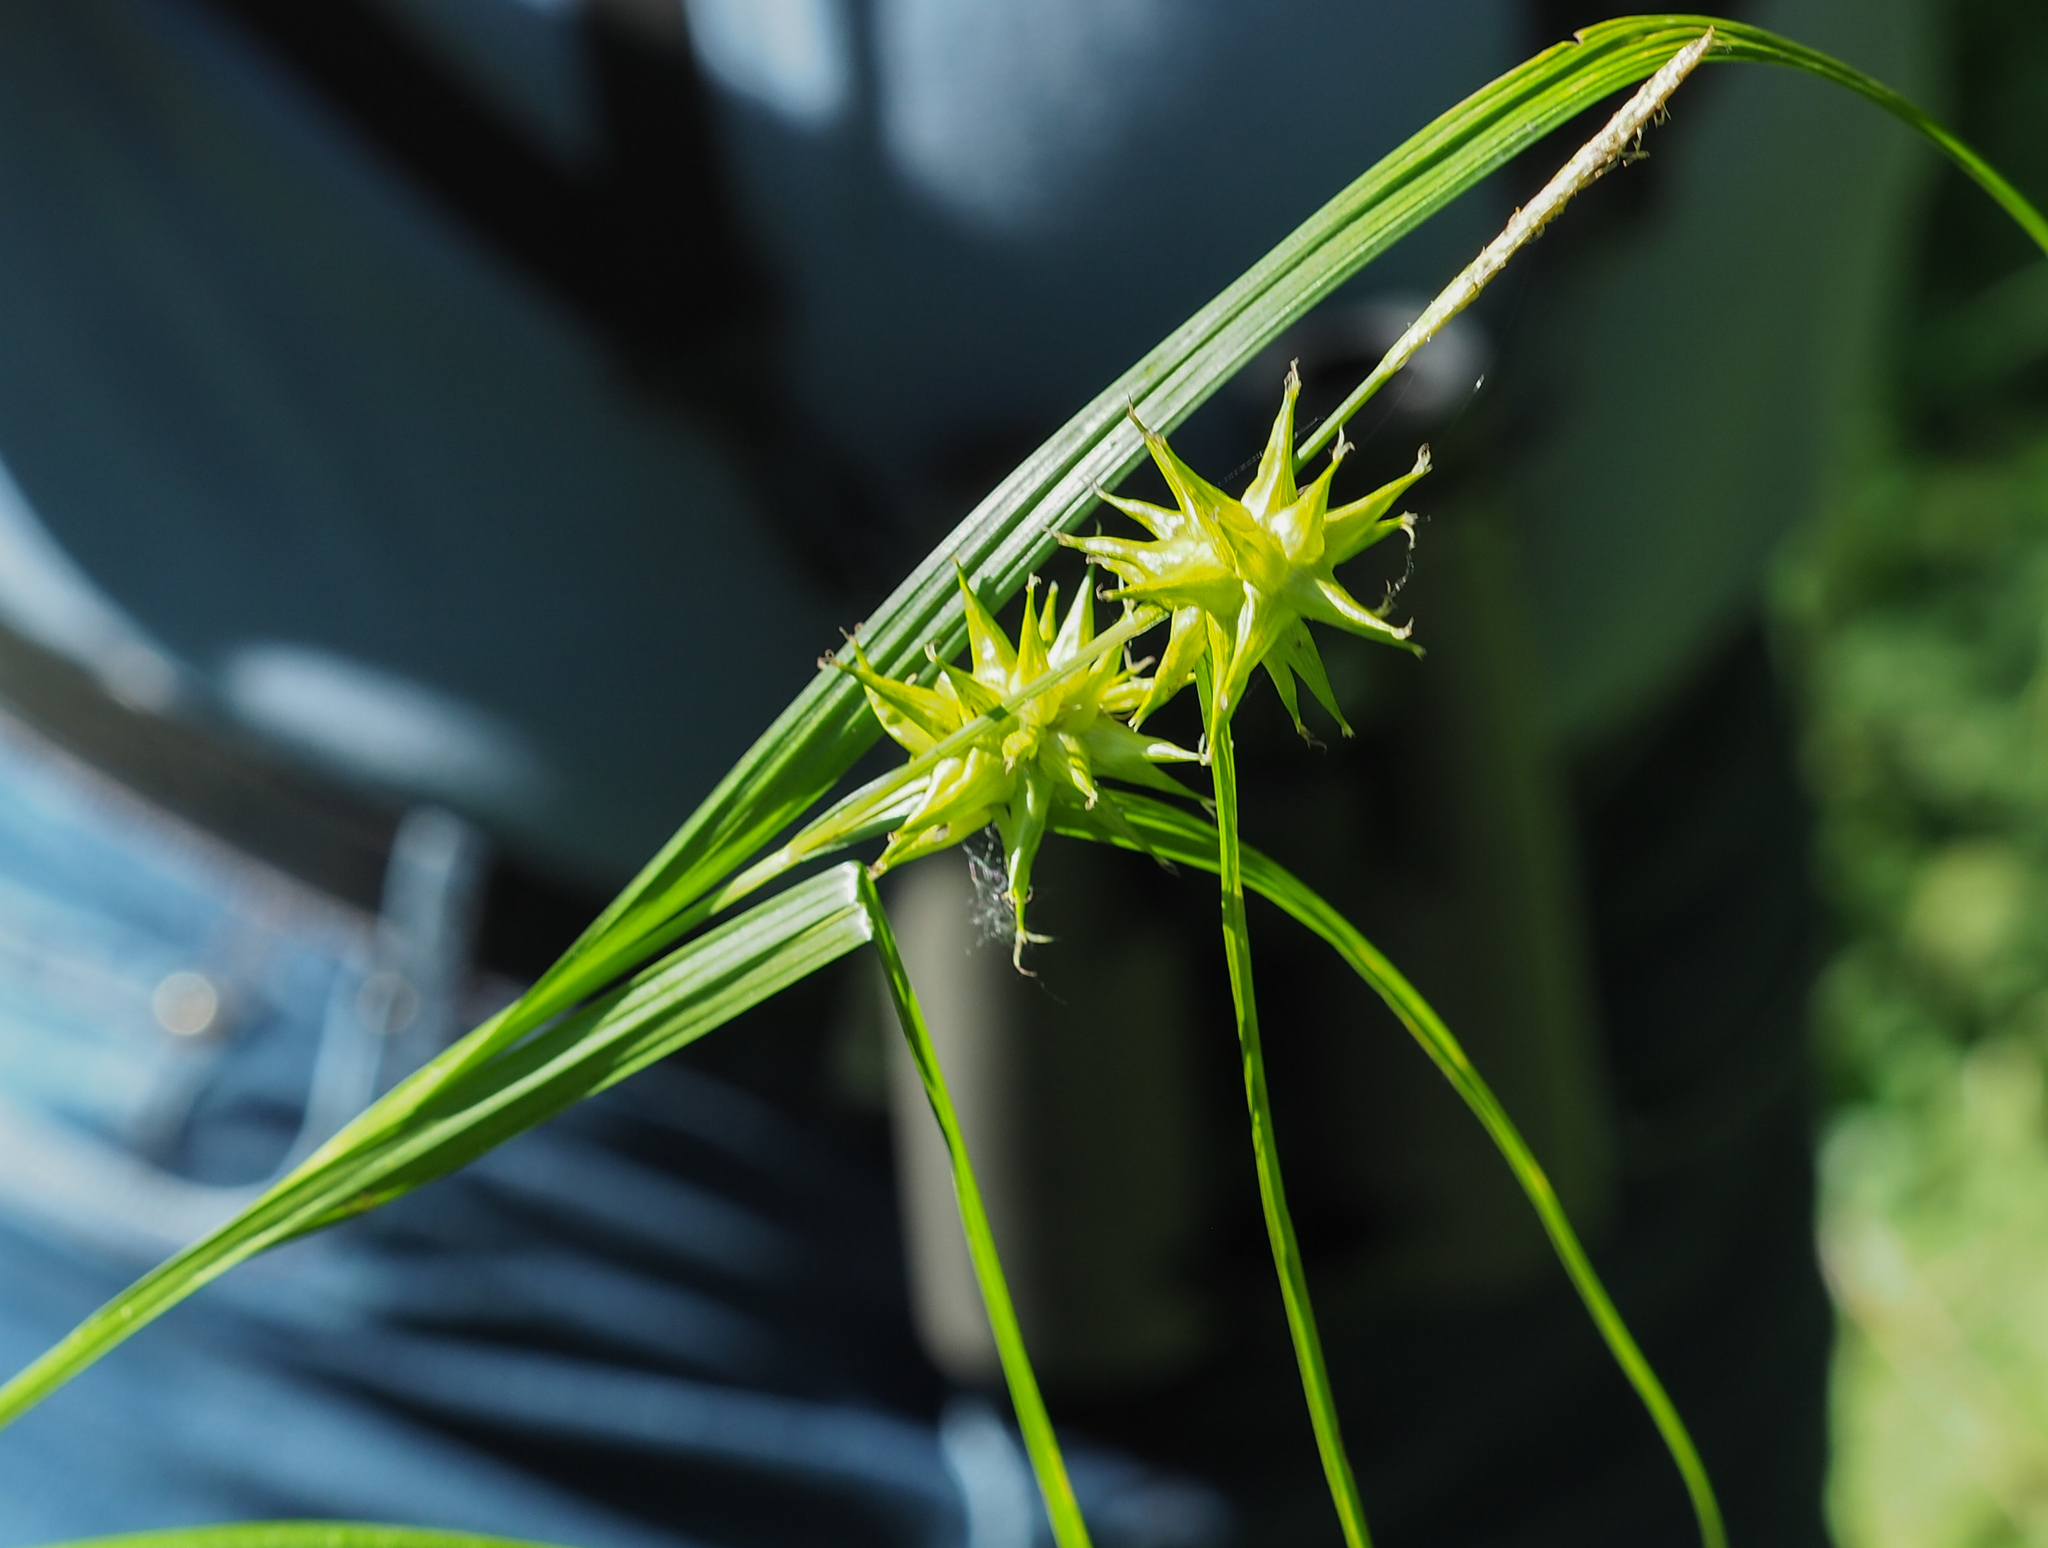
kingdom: Plantae
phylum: Tracheophyta
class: Liliopsida
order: Poales
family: Cyperaceae
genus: Carex
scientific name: Carex grayi
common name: Asa gray's sedge
